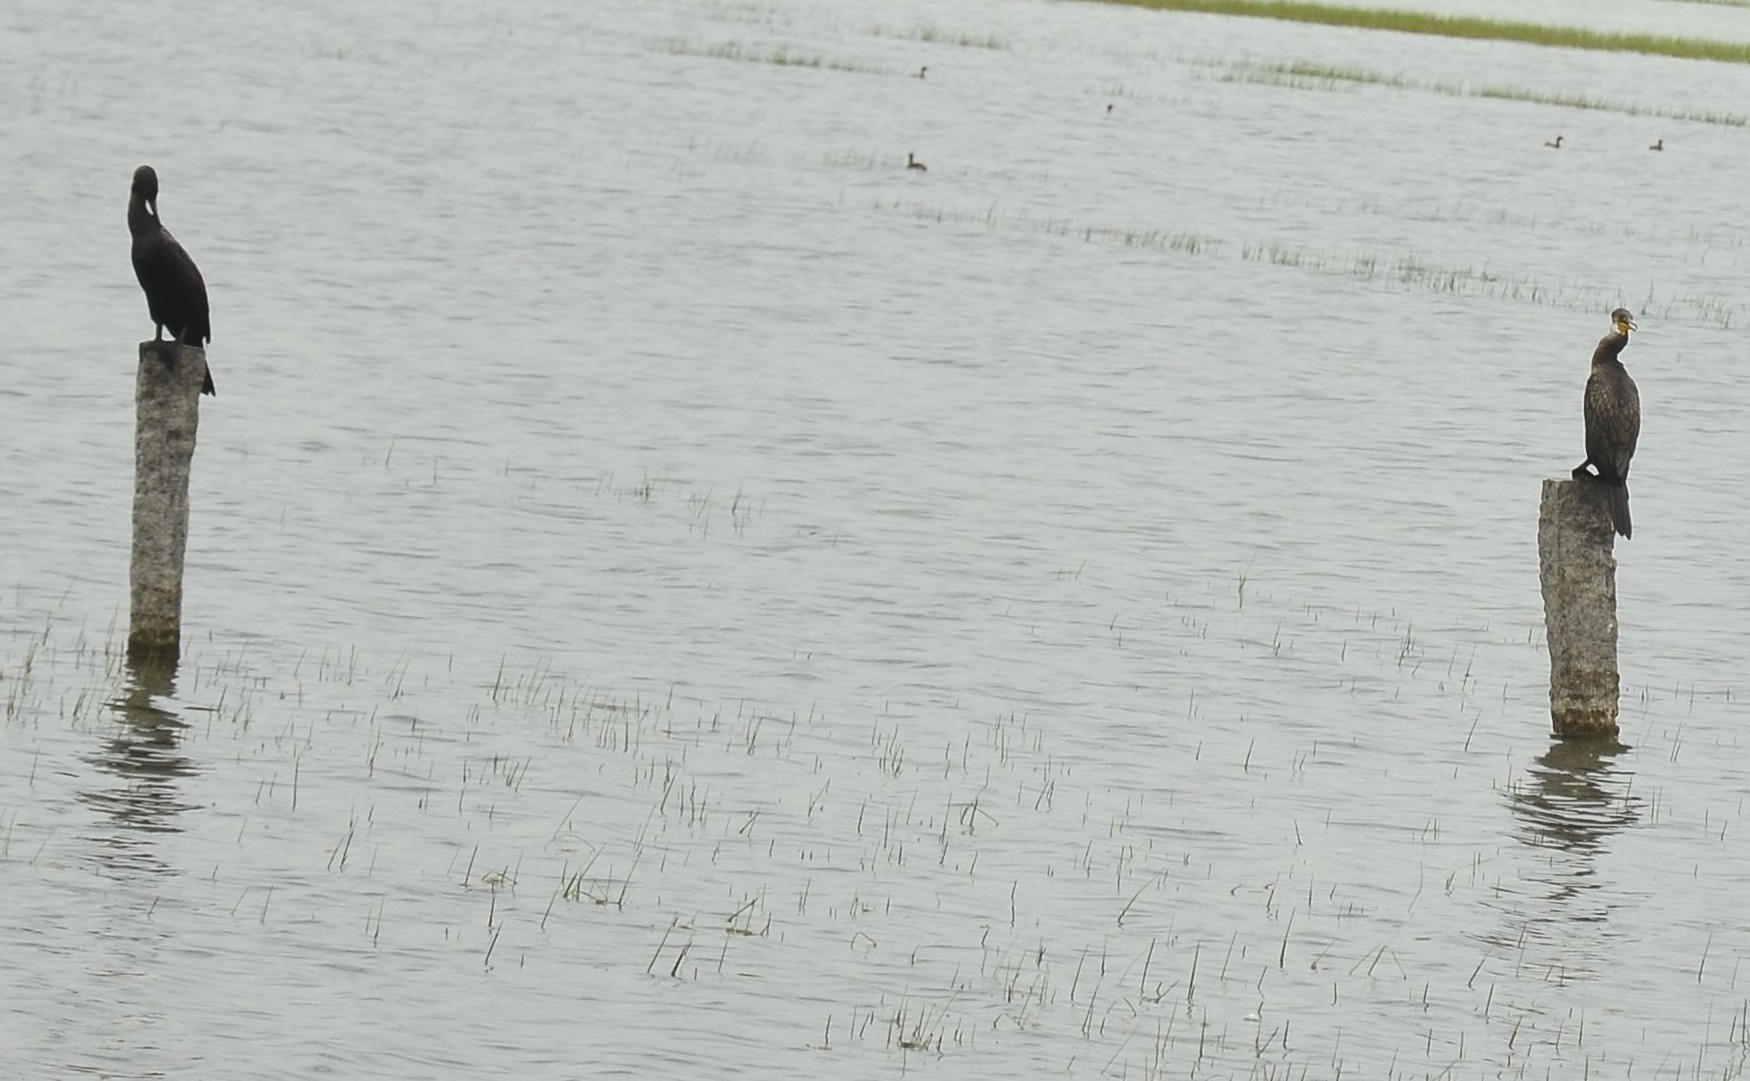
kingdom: Animalia
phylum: Chordata
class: Aves
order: Suliformes
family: Phalacrocoracidae
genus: Phalacrocorax
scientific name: Phalacrocorax fuscicollis
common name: Indian cormorant
